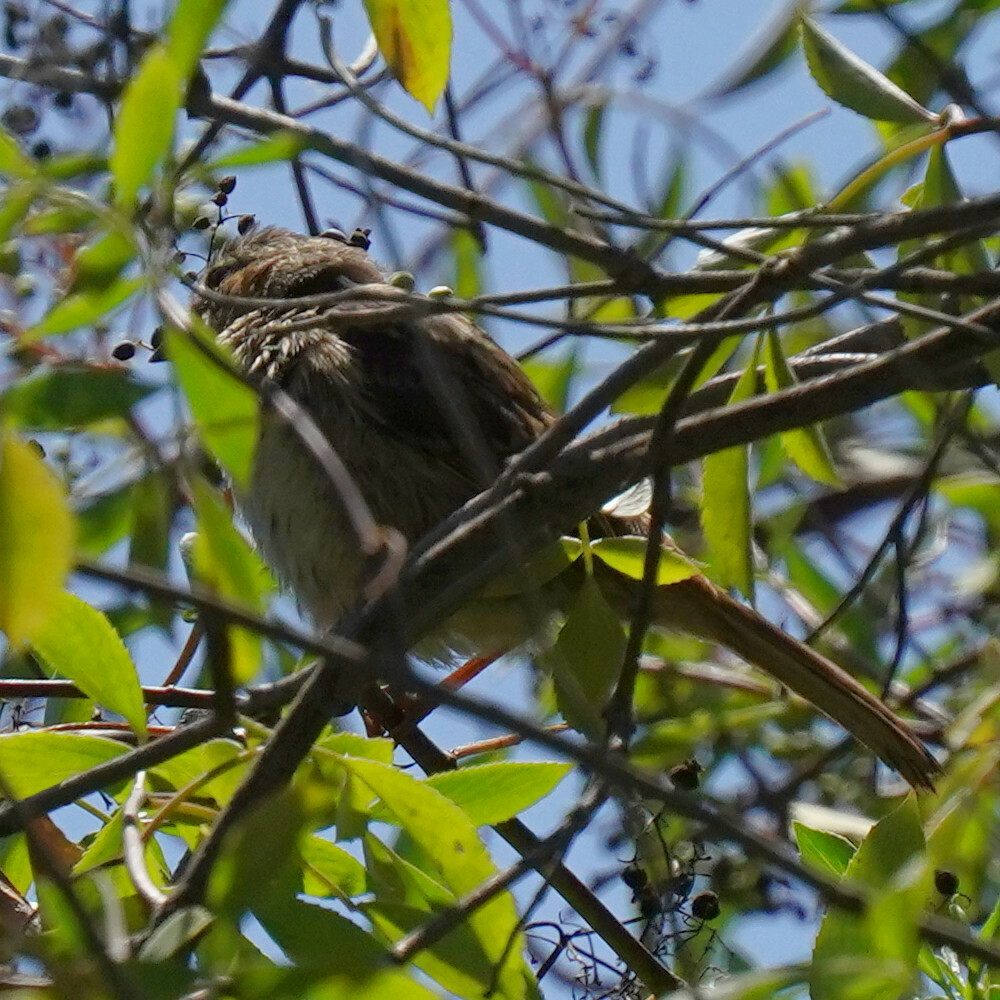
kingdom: Animalia
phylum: Chordata
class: Aves
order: Passeriformes
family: Passerellidae
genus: Melospiza
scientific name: Melospiza melodia
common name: Song sparrow
